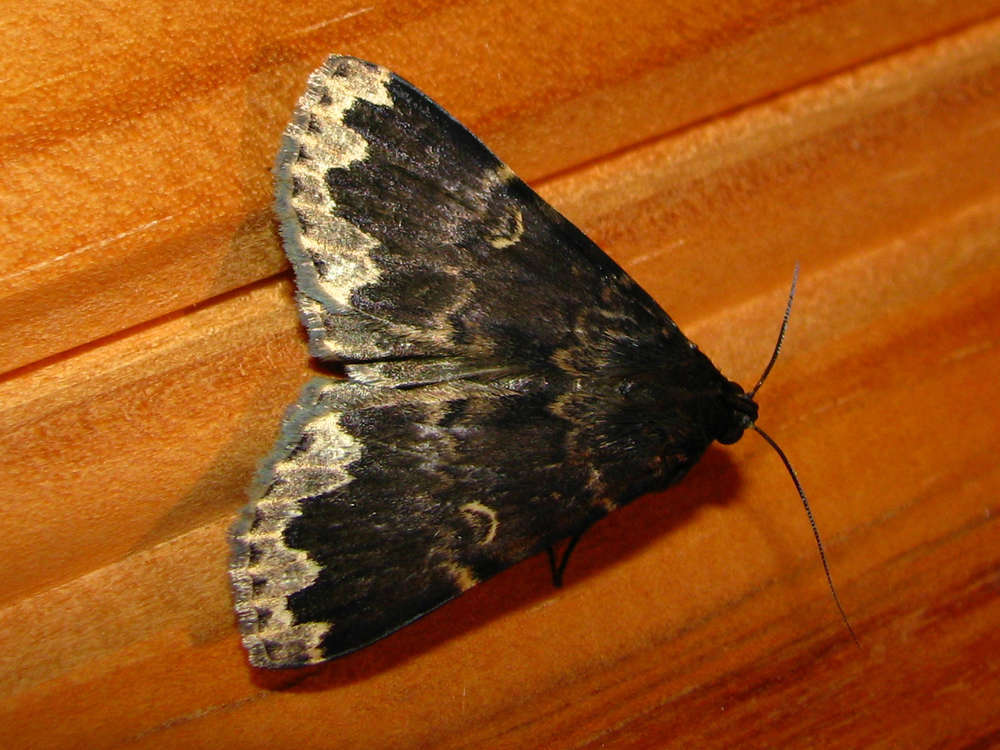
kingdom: Animalia
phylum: Arthropoda
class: Insecta
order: Lepidoptera
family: Erebidae
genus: Mormoscopa
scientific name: Mormoscopa sordescens
